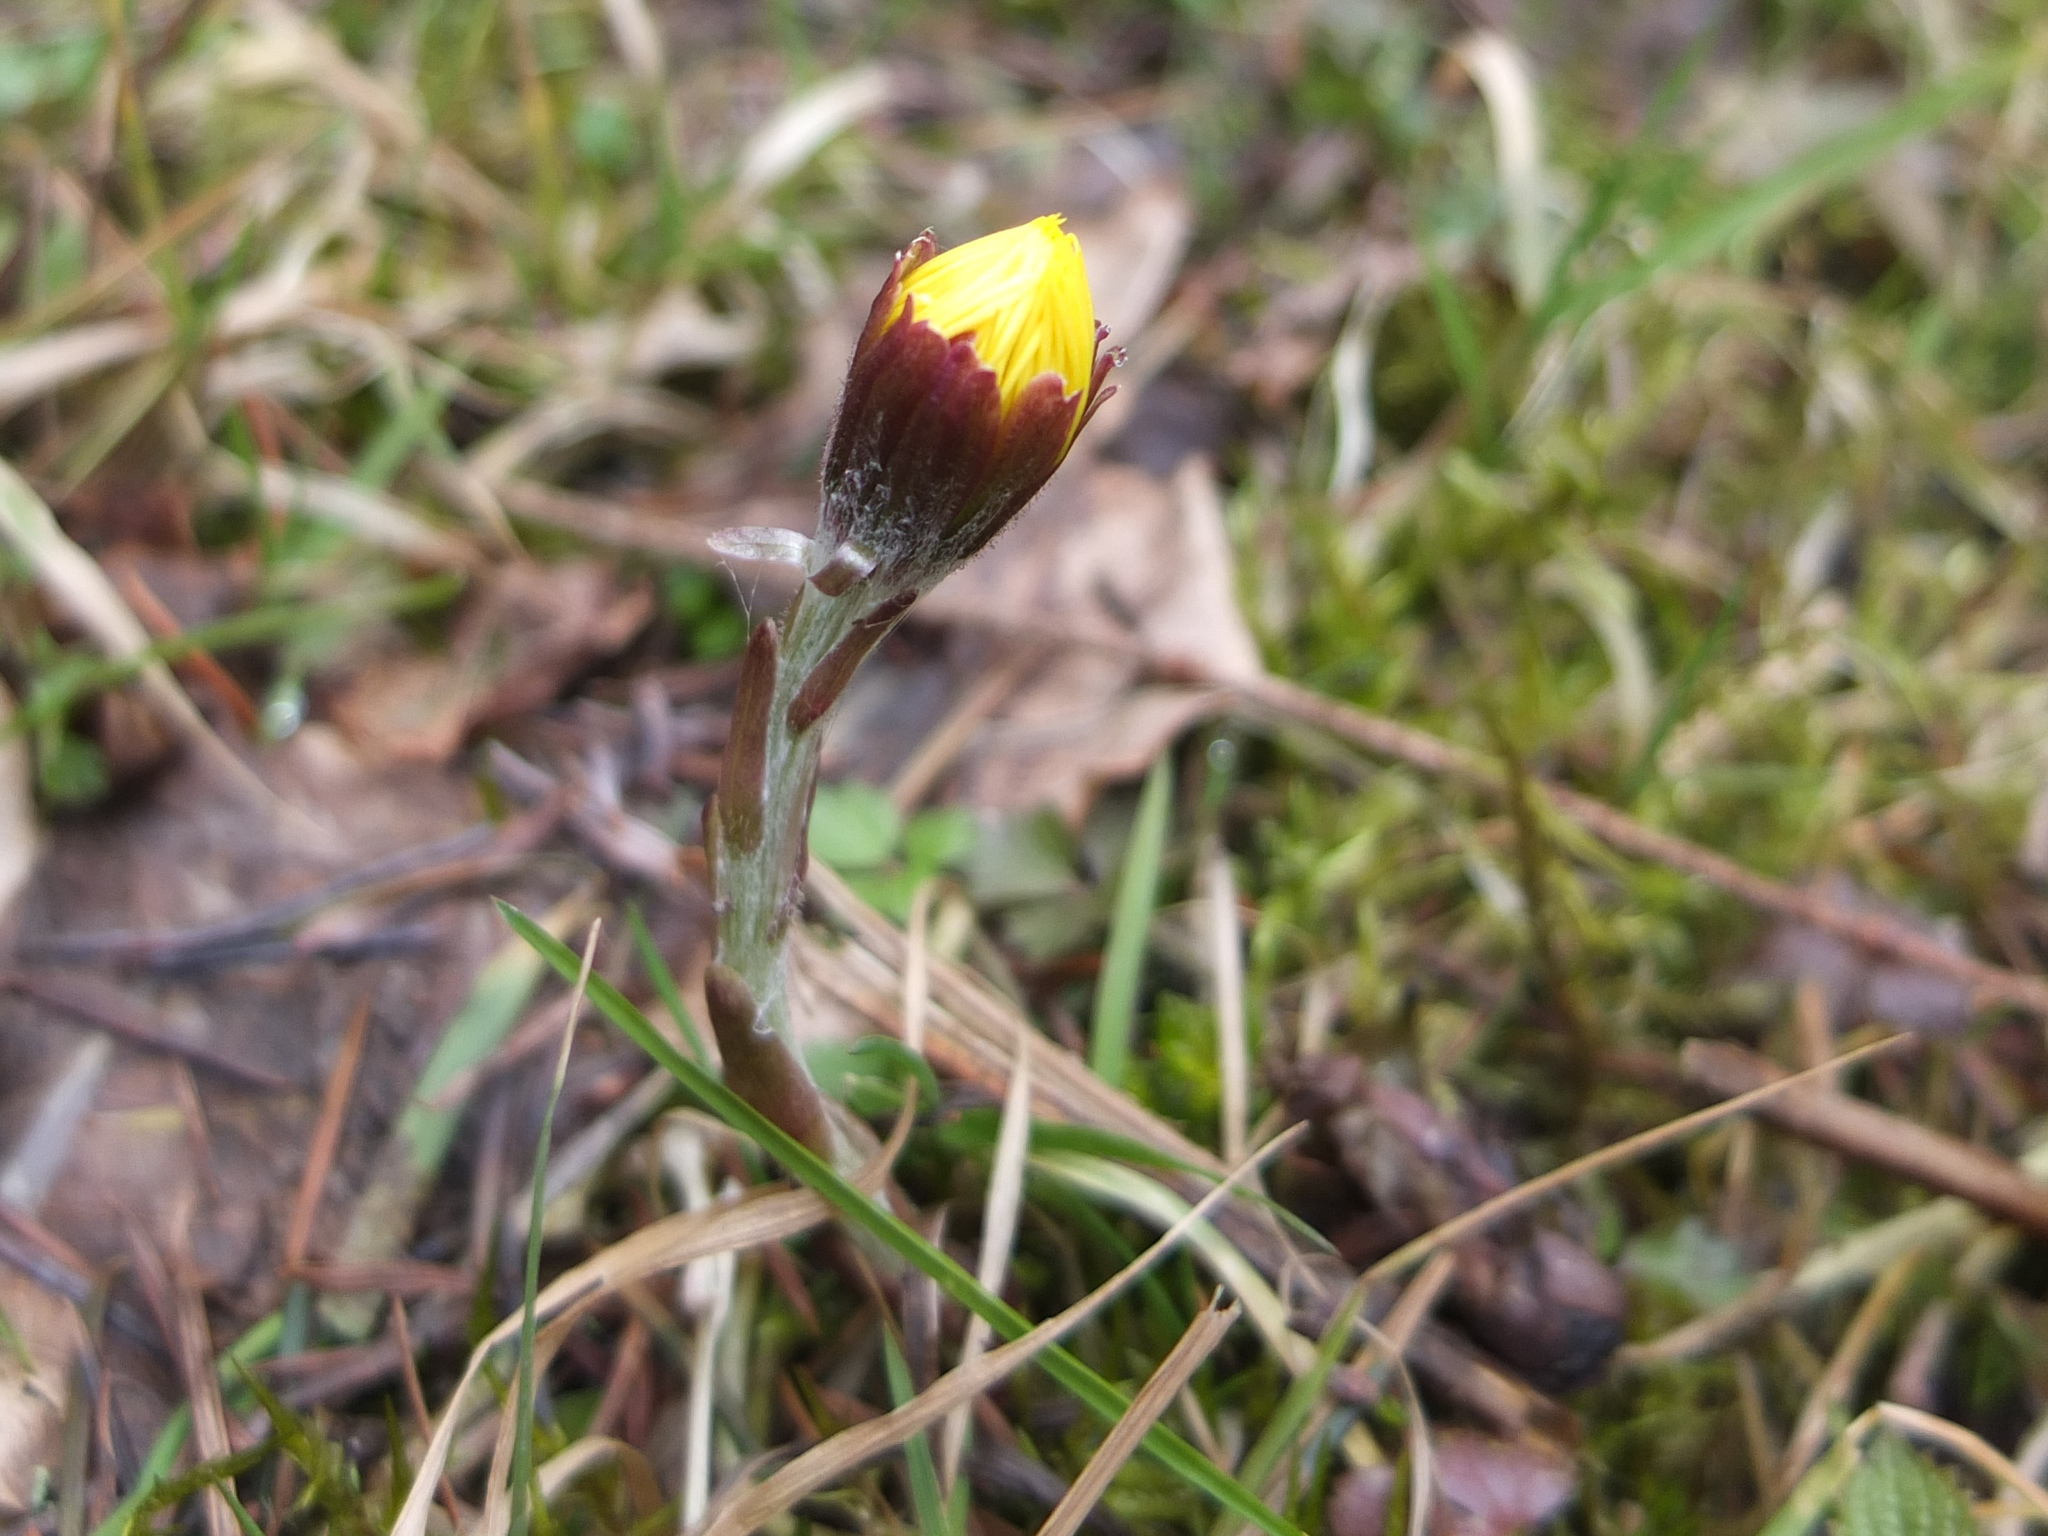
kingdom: Plantae
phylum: Tracheophyta
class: Magnoliopsida
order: Asterales
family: Asteraceae
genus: Tussilago
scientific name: Tussilago farfara
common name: Coltsfoot
